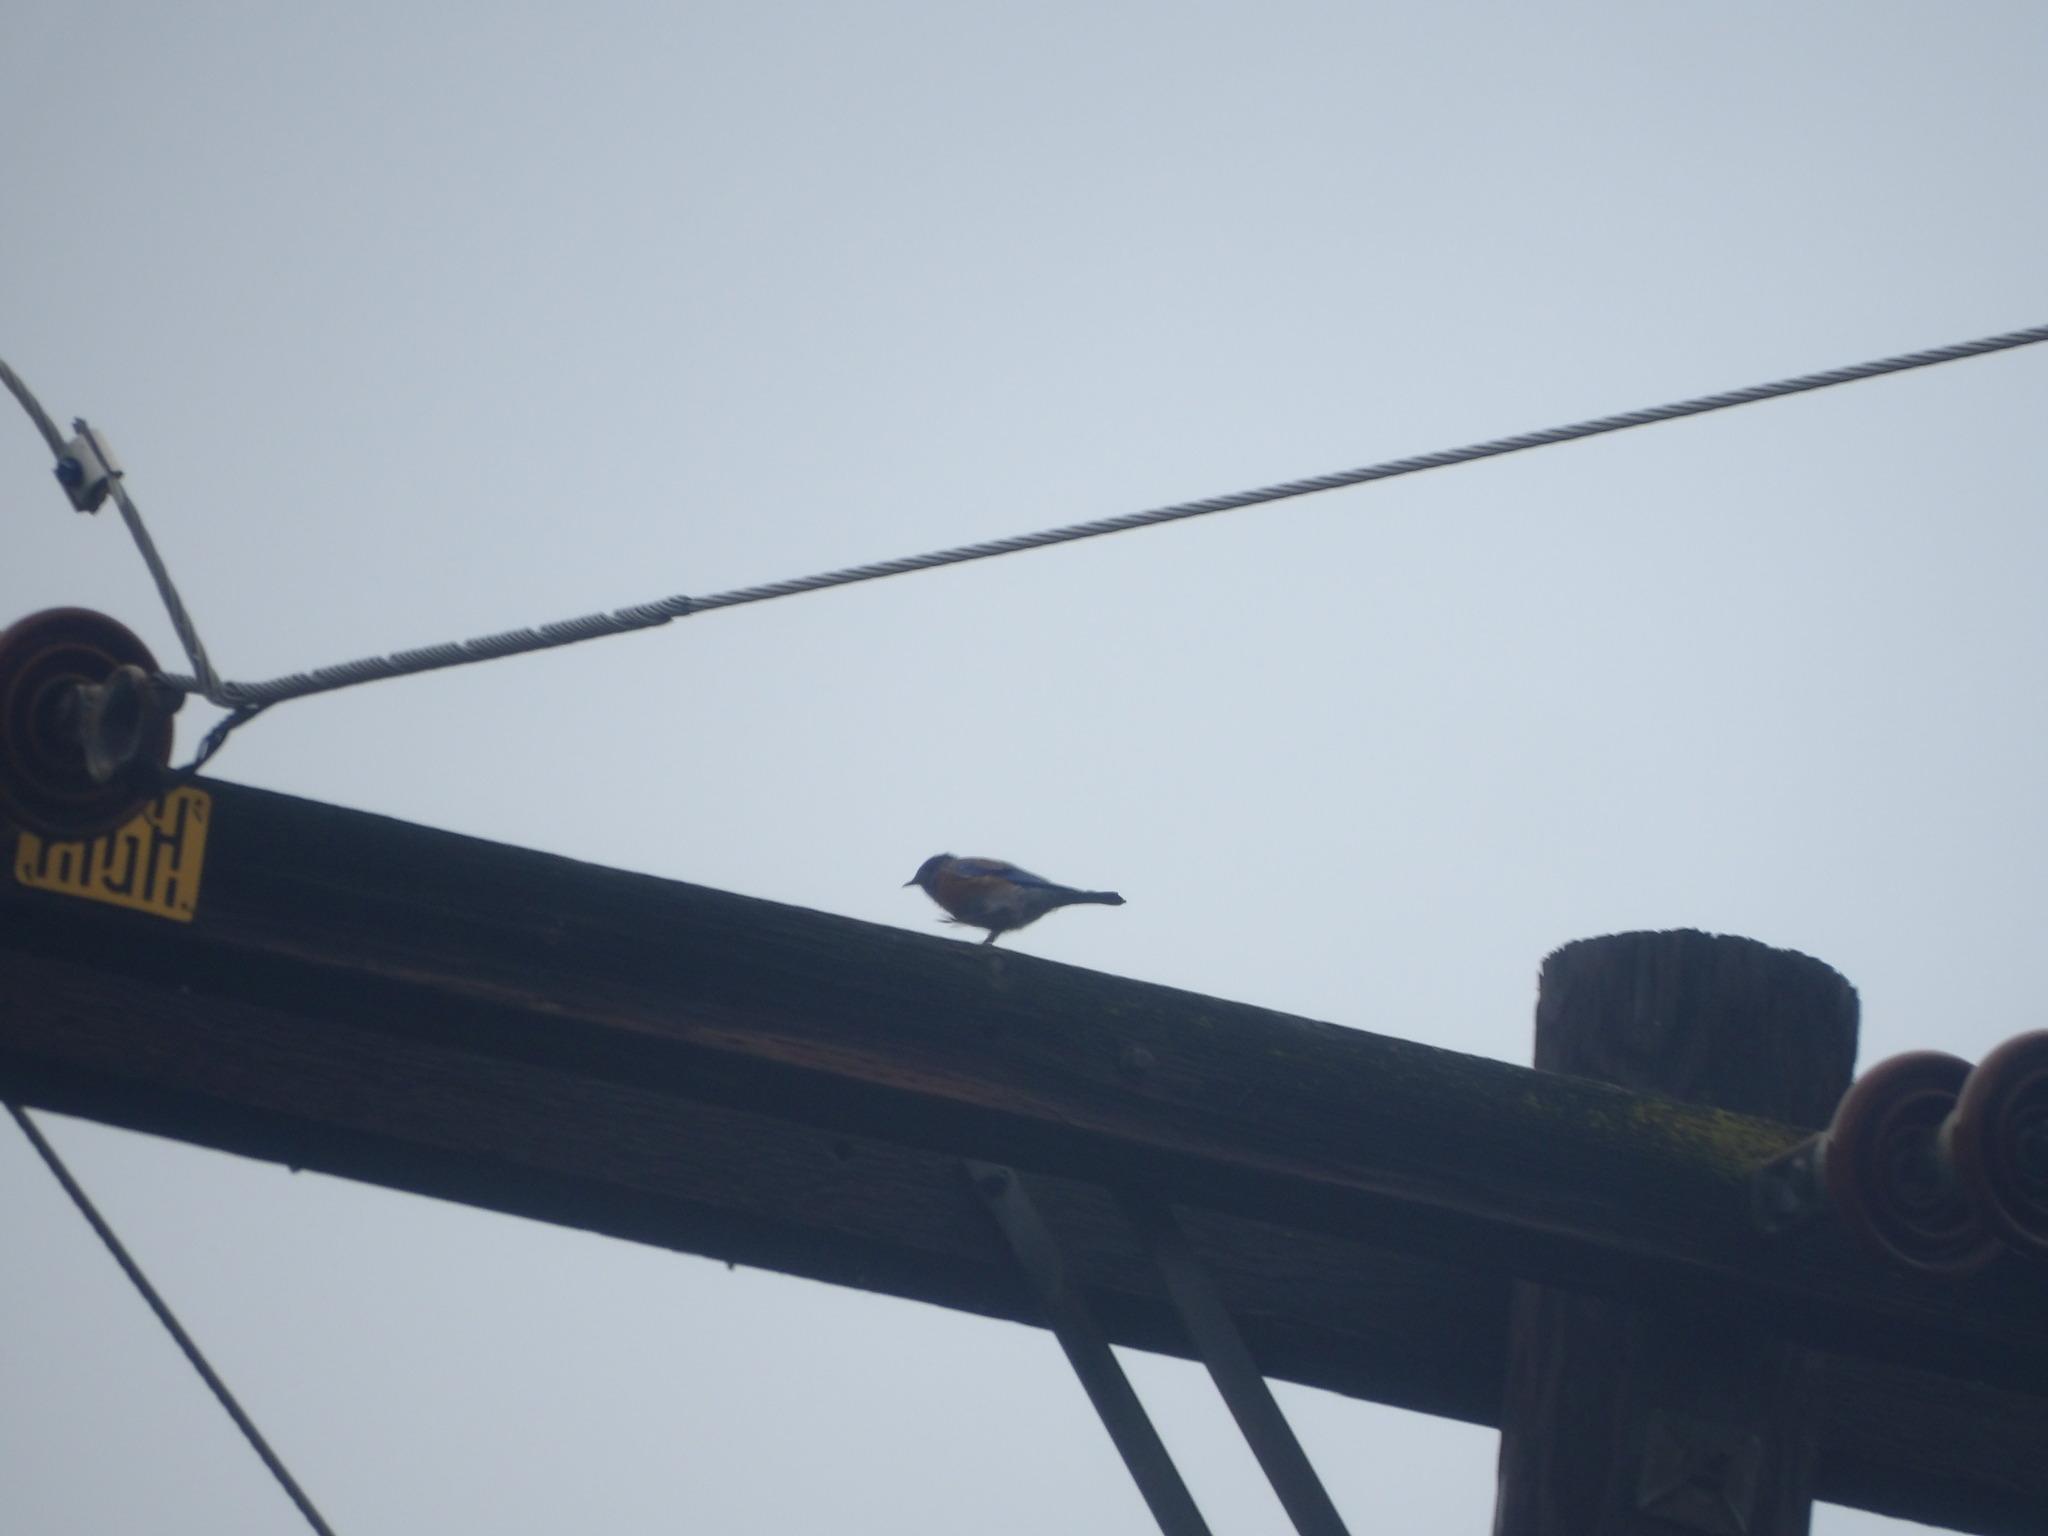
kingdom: Animalia
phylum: Chordata
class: Aves
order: Passeriformes
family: Turdidae
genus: Sialia
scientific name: Sialia mexicana
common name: Western bluebird
